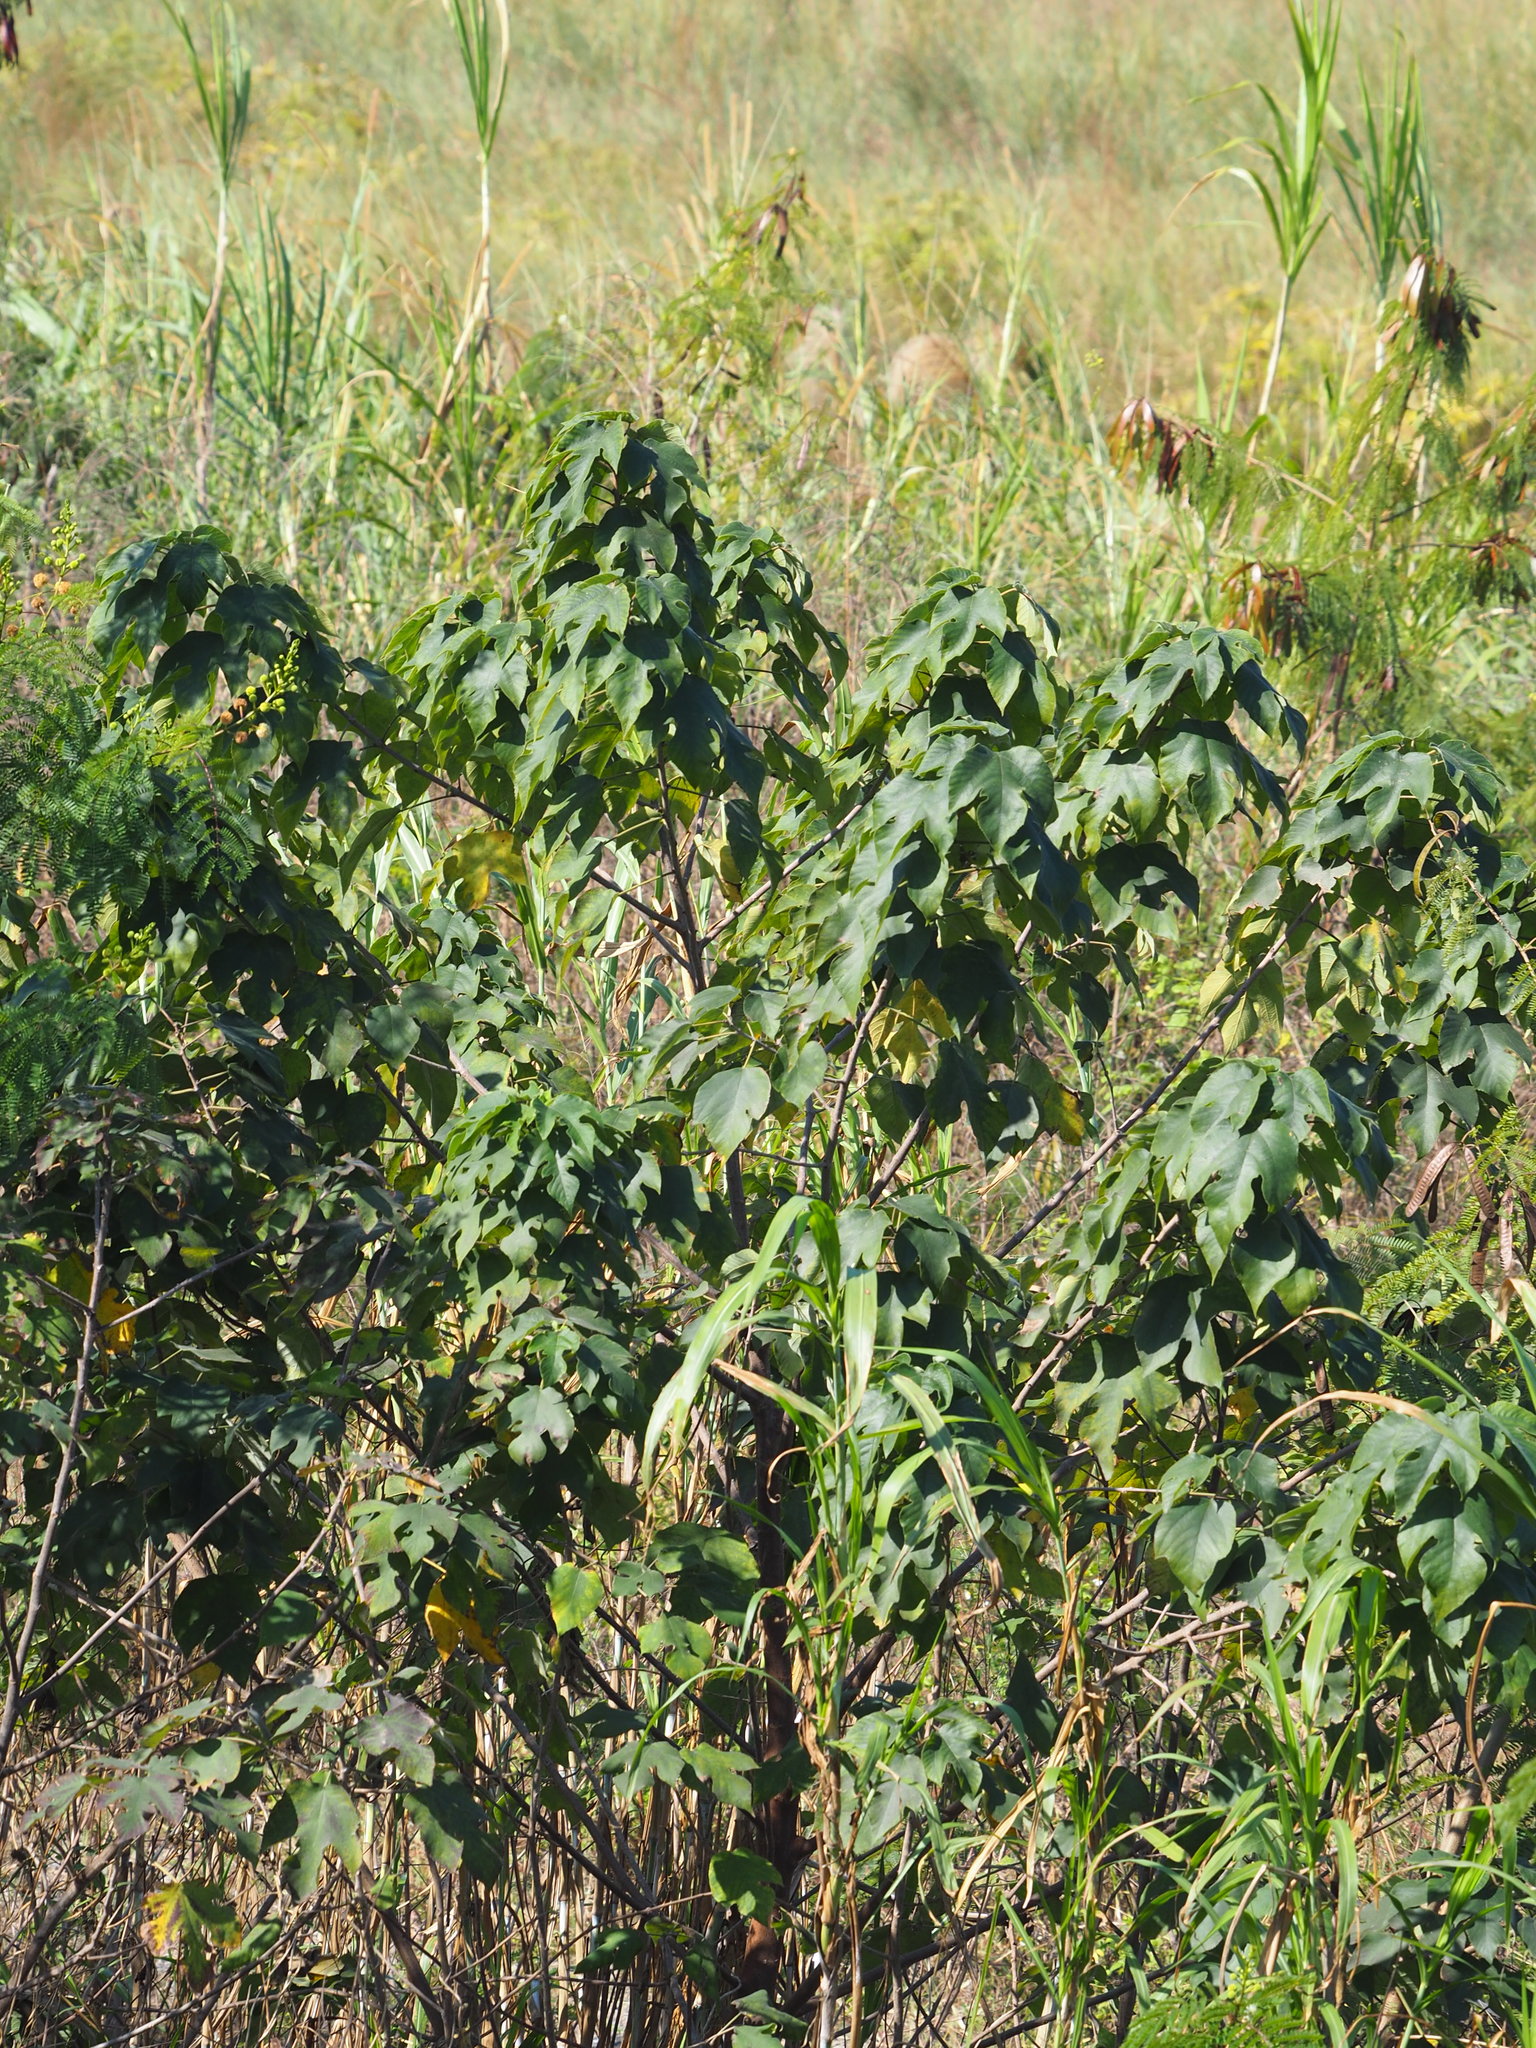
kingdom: Plantae
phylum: Tracheophyta
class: Magnoliopsida
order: Rosales
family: Moraceae
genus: Broussonetia
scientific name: Broussonetia papyrifera
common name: Paper mulberry
